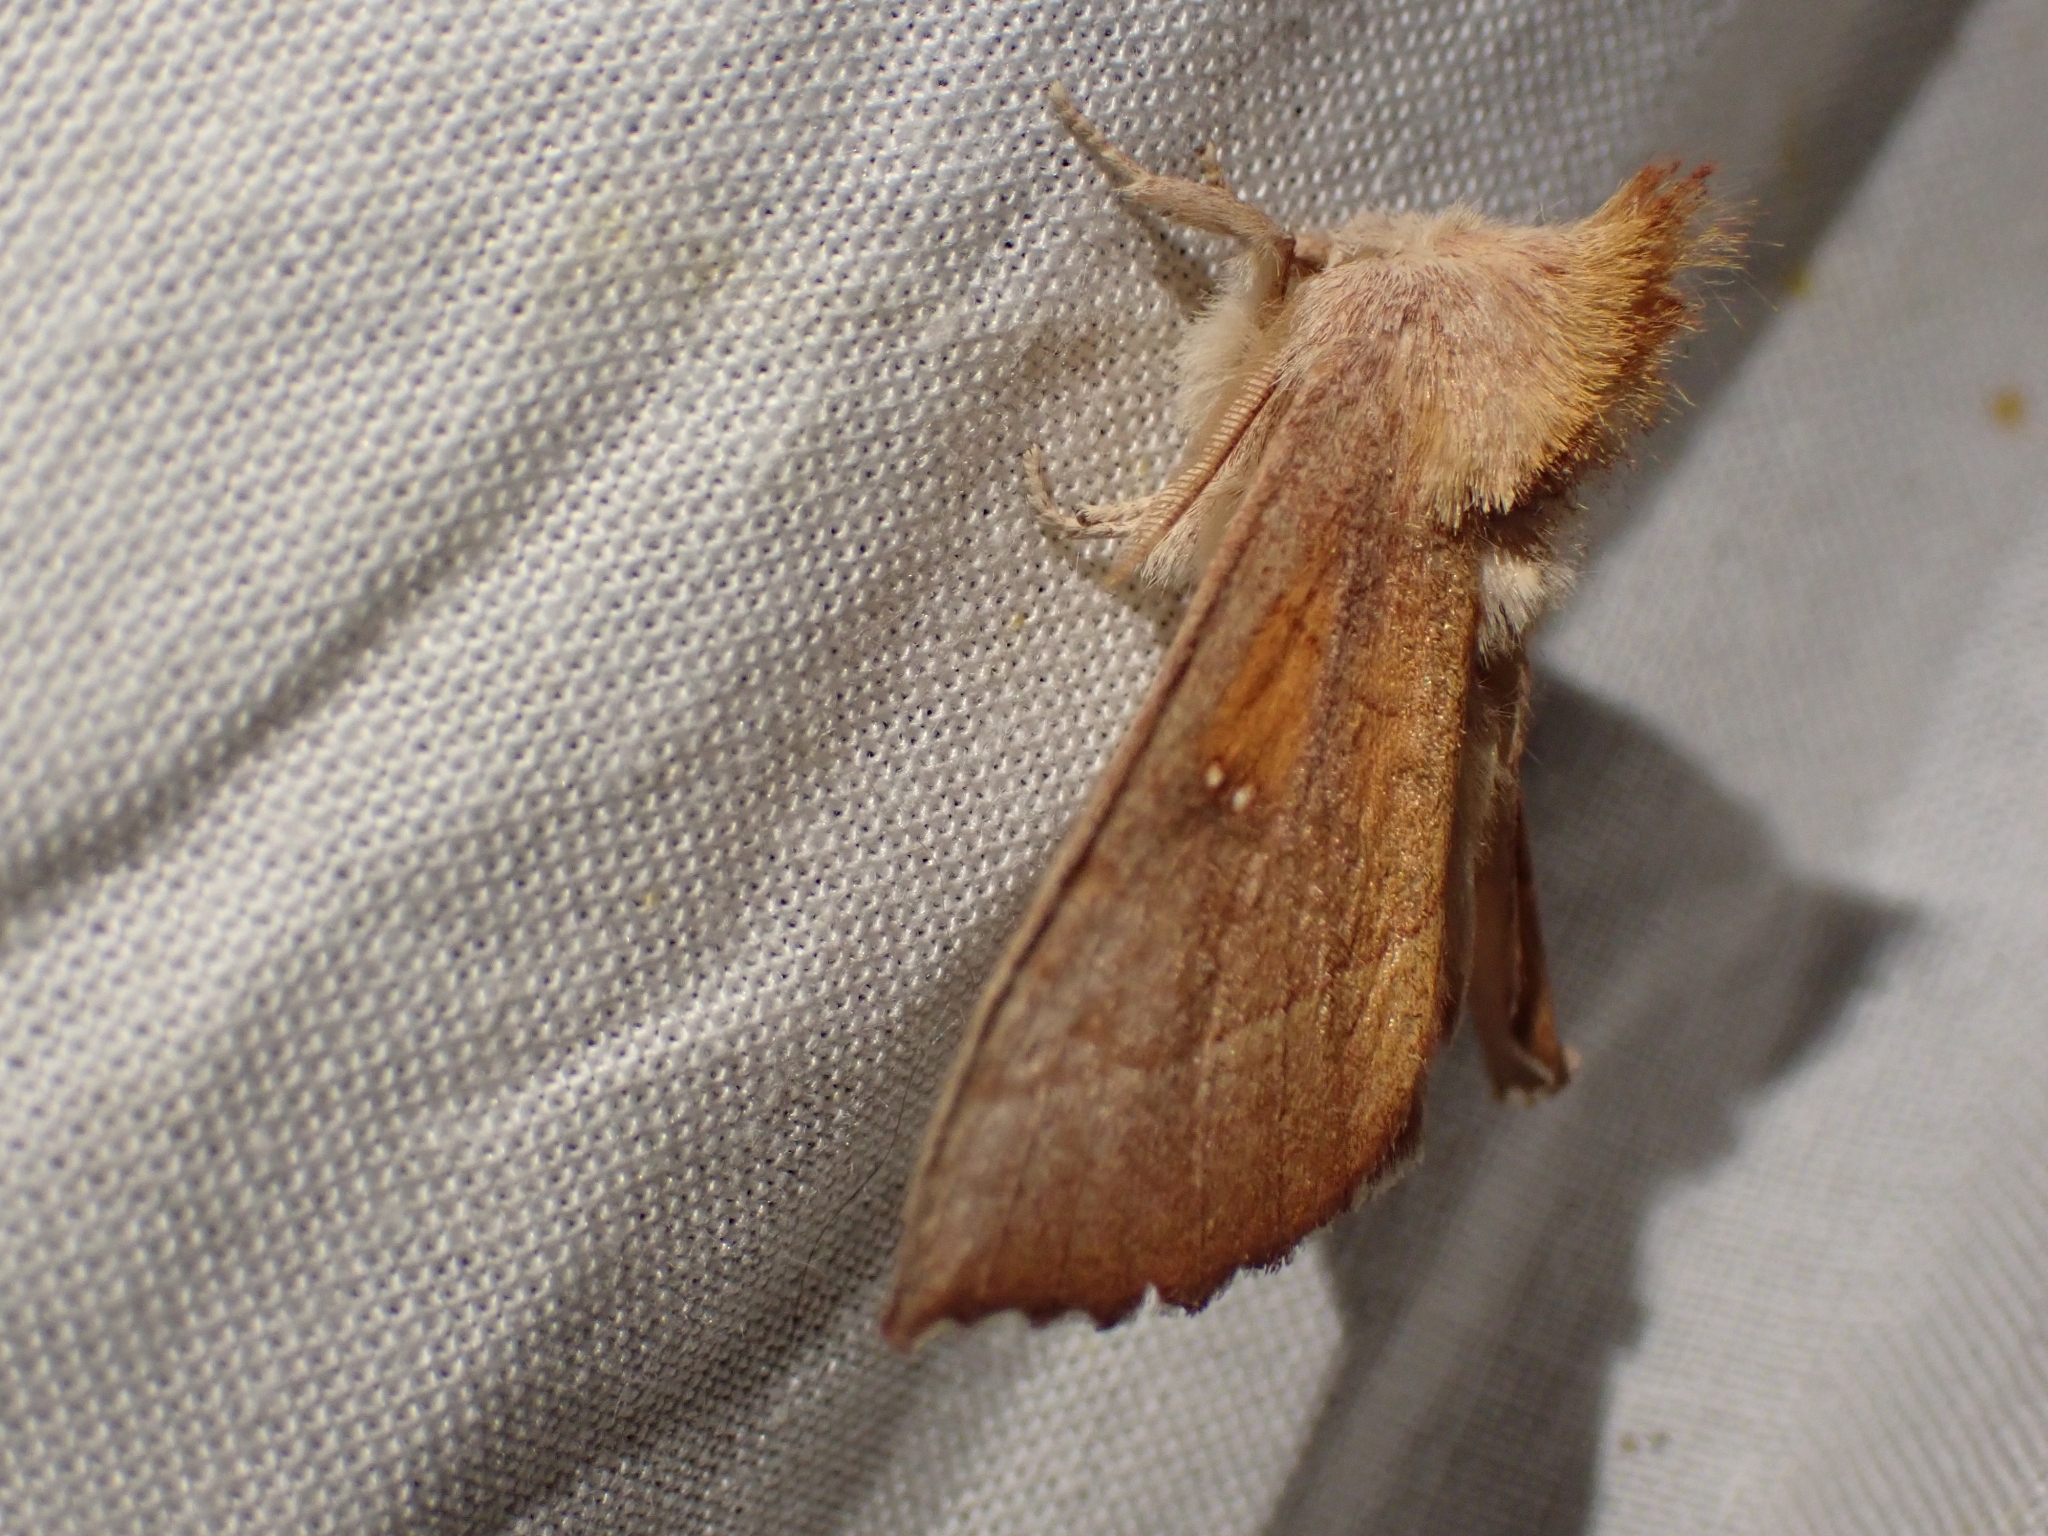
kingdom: Animalia
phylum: Arthropoda
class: Insecta
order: Lepidoptera
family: Notodontidae
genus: Nadata
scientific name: Nadata gibbosa
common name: White-dotted prominent
